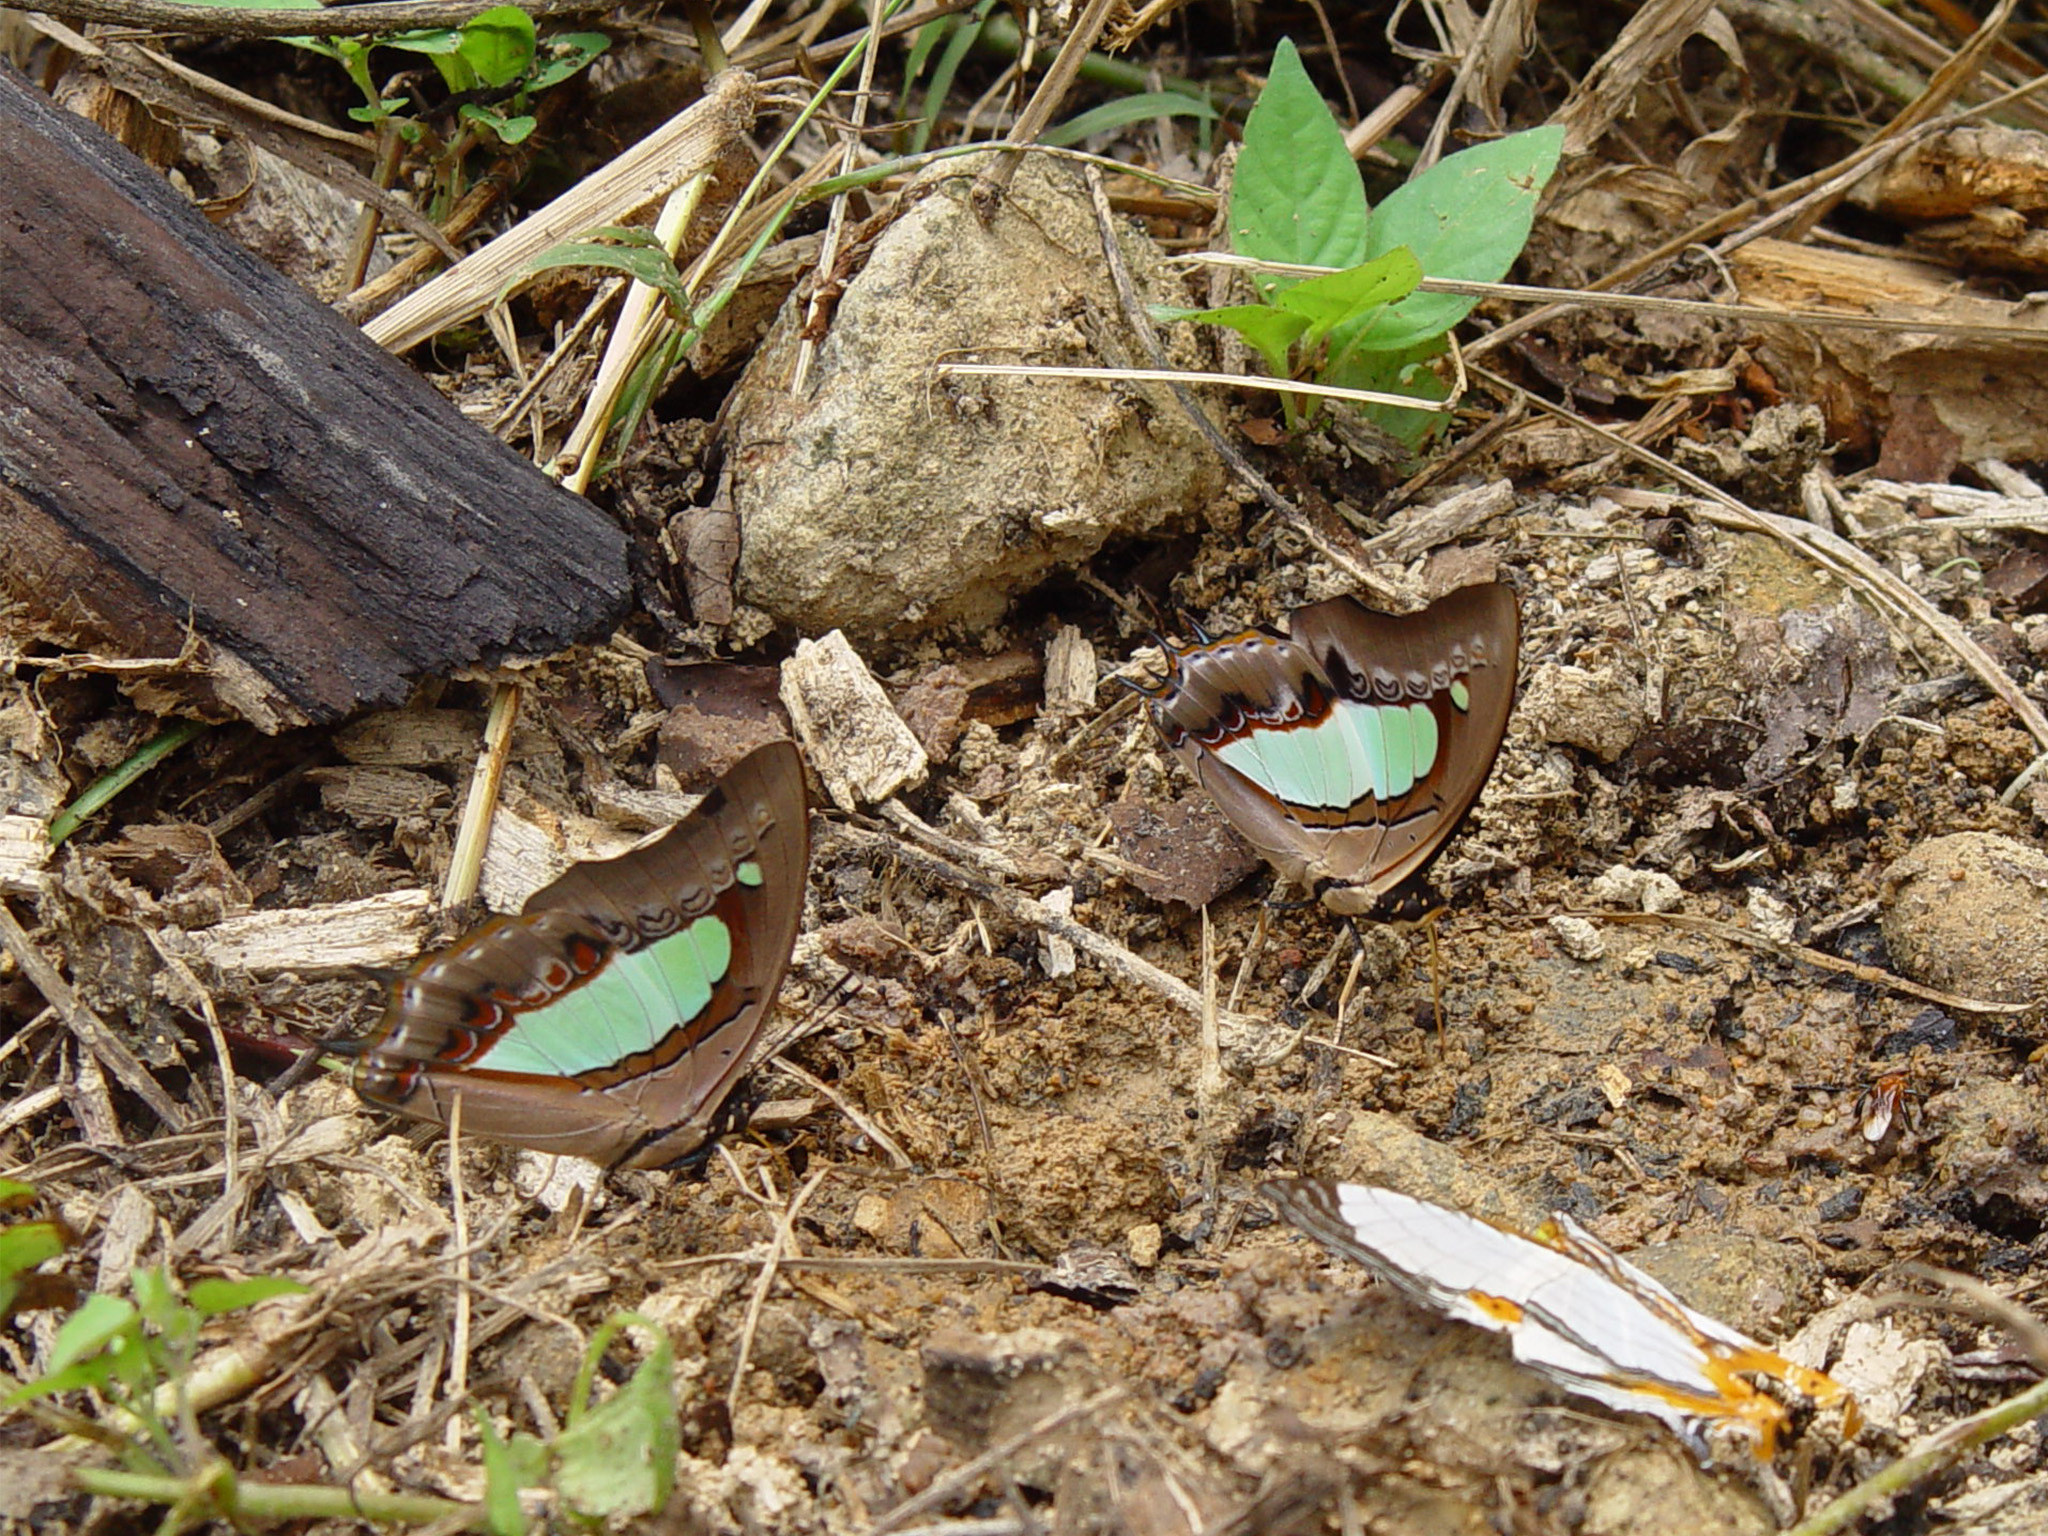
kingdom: Animalia
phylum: Arthropoda
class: Insecta
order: Lepidoptera
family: Nymphalidae
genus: Polyura
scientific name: Polyura athamas
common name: Common nawab
